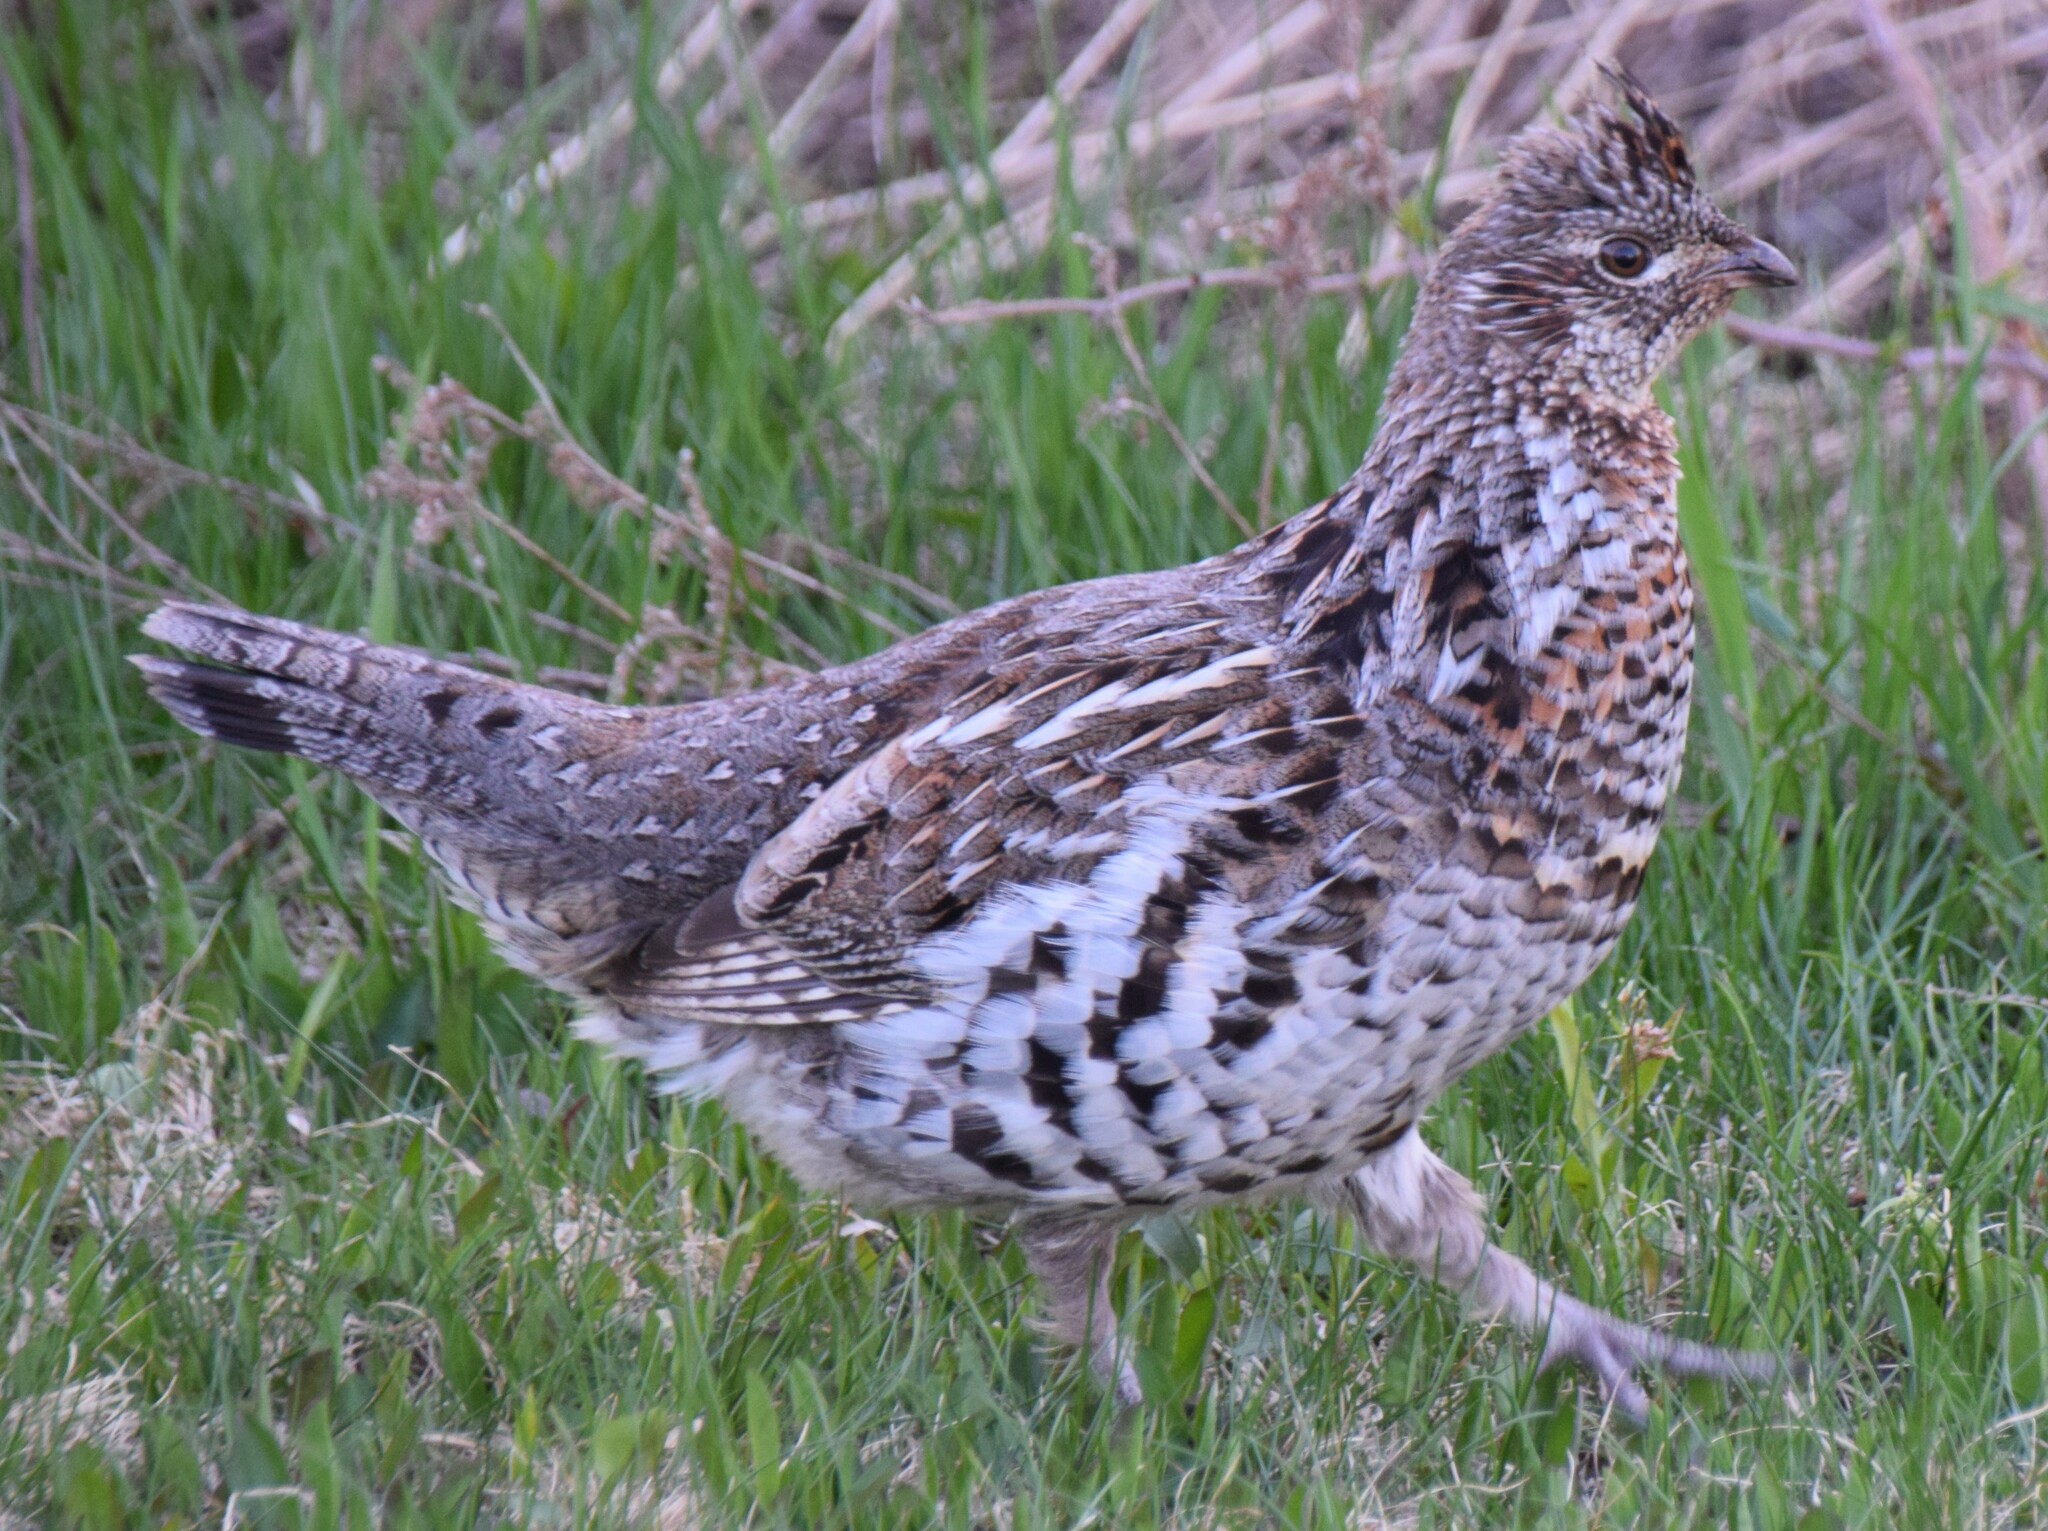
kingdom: Animalia
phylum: Chordata
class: Aves
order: Galliformes
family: Phasianidae
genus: Bonasa
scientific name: Bonasa umbellus
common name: Ruffed grouse
